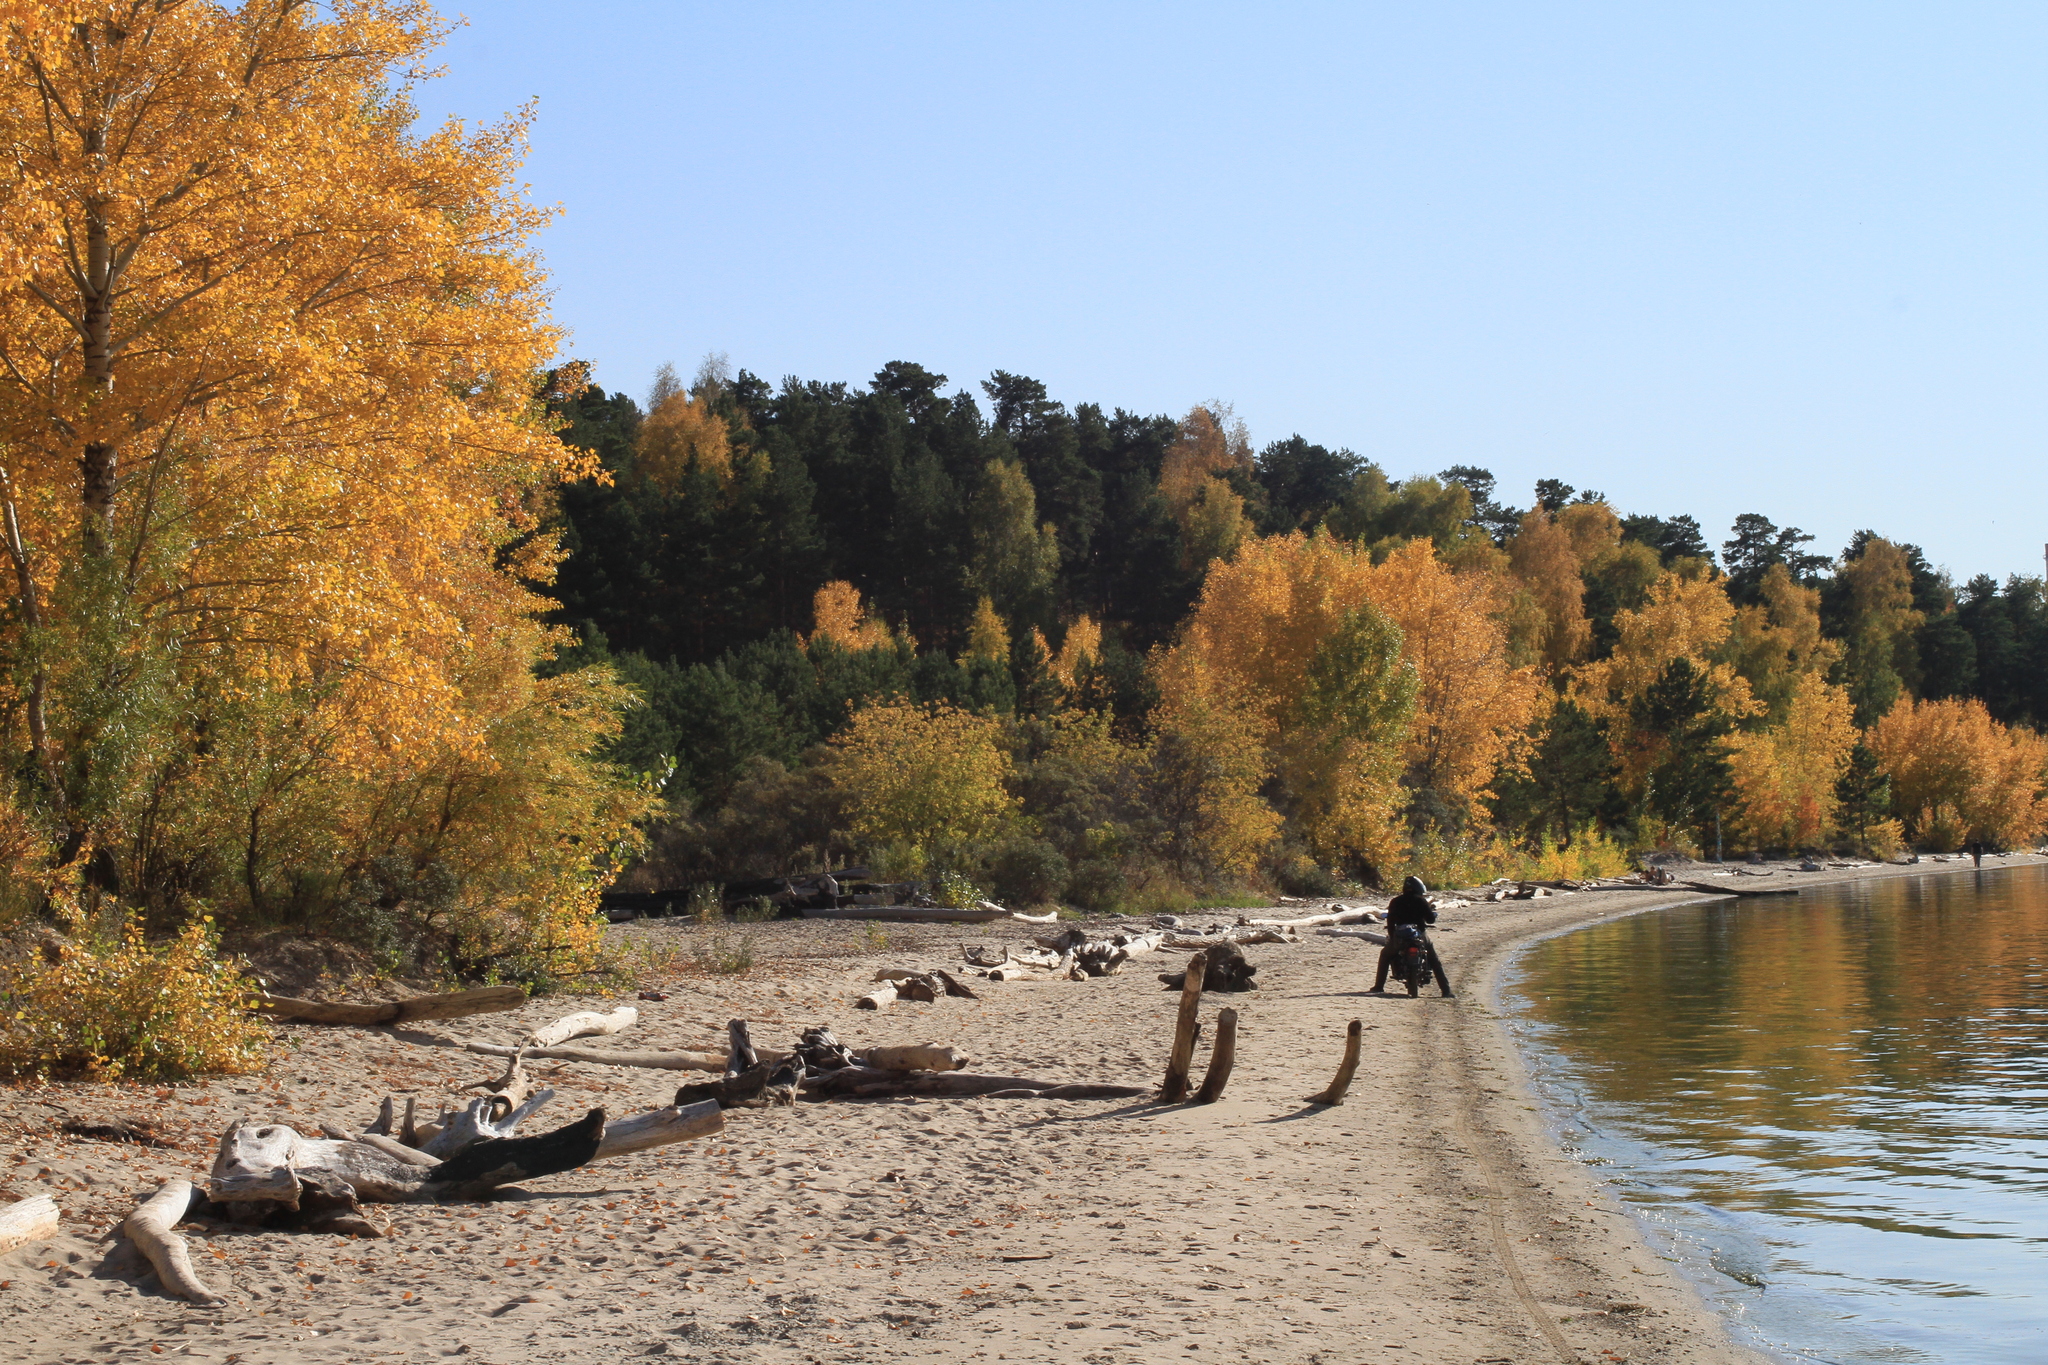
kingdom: Plantae
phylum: Tracheophyta
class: Pinopsida
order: Pinales
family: Pinaceae
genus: Pinus
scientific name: Pinus sylvestris
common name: Scots pine
